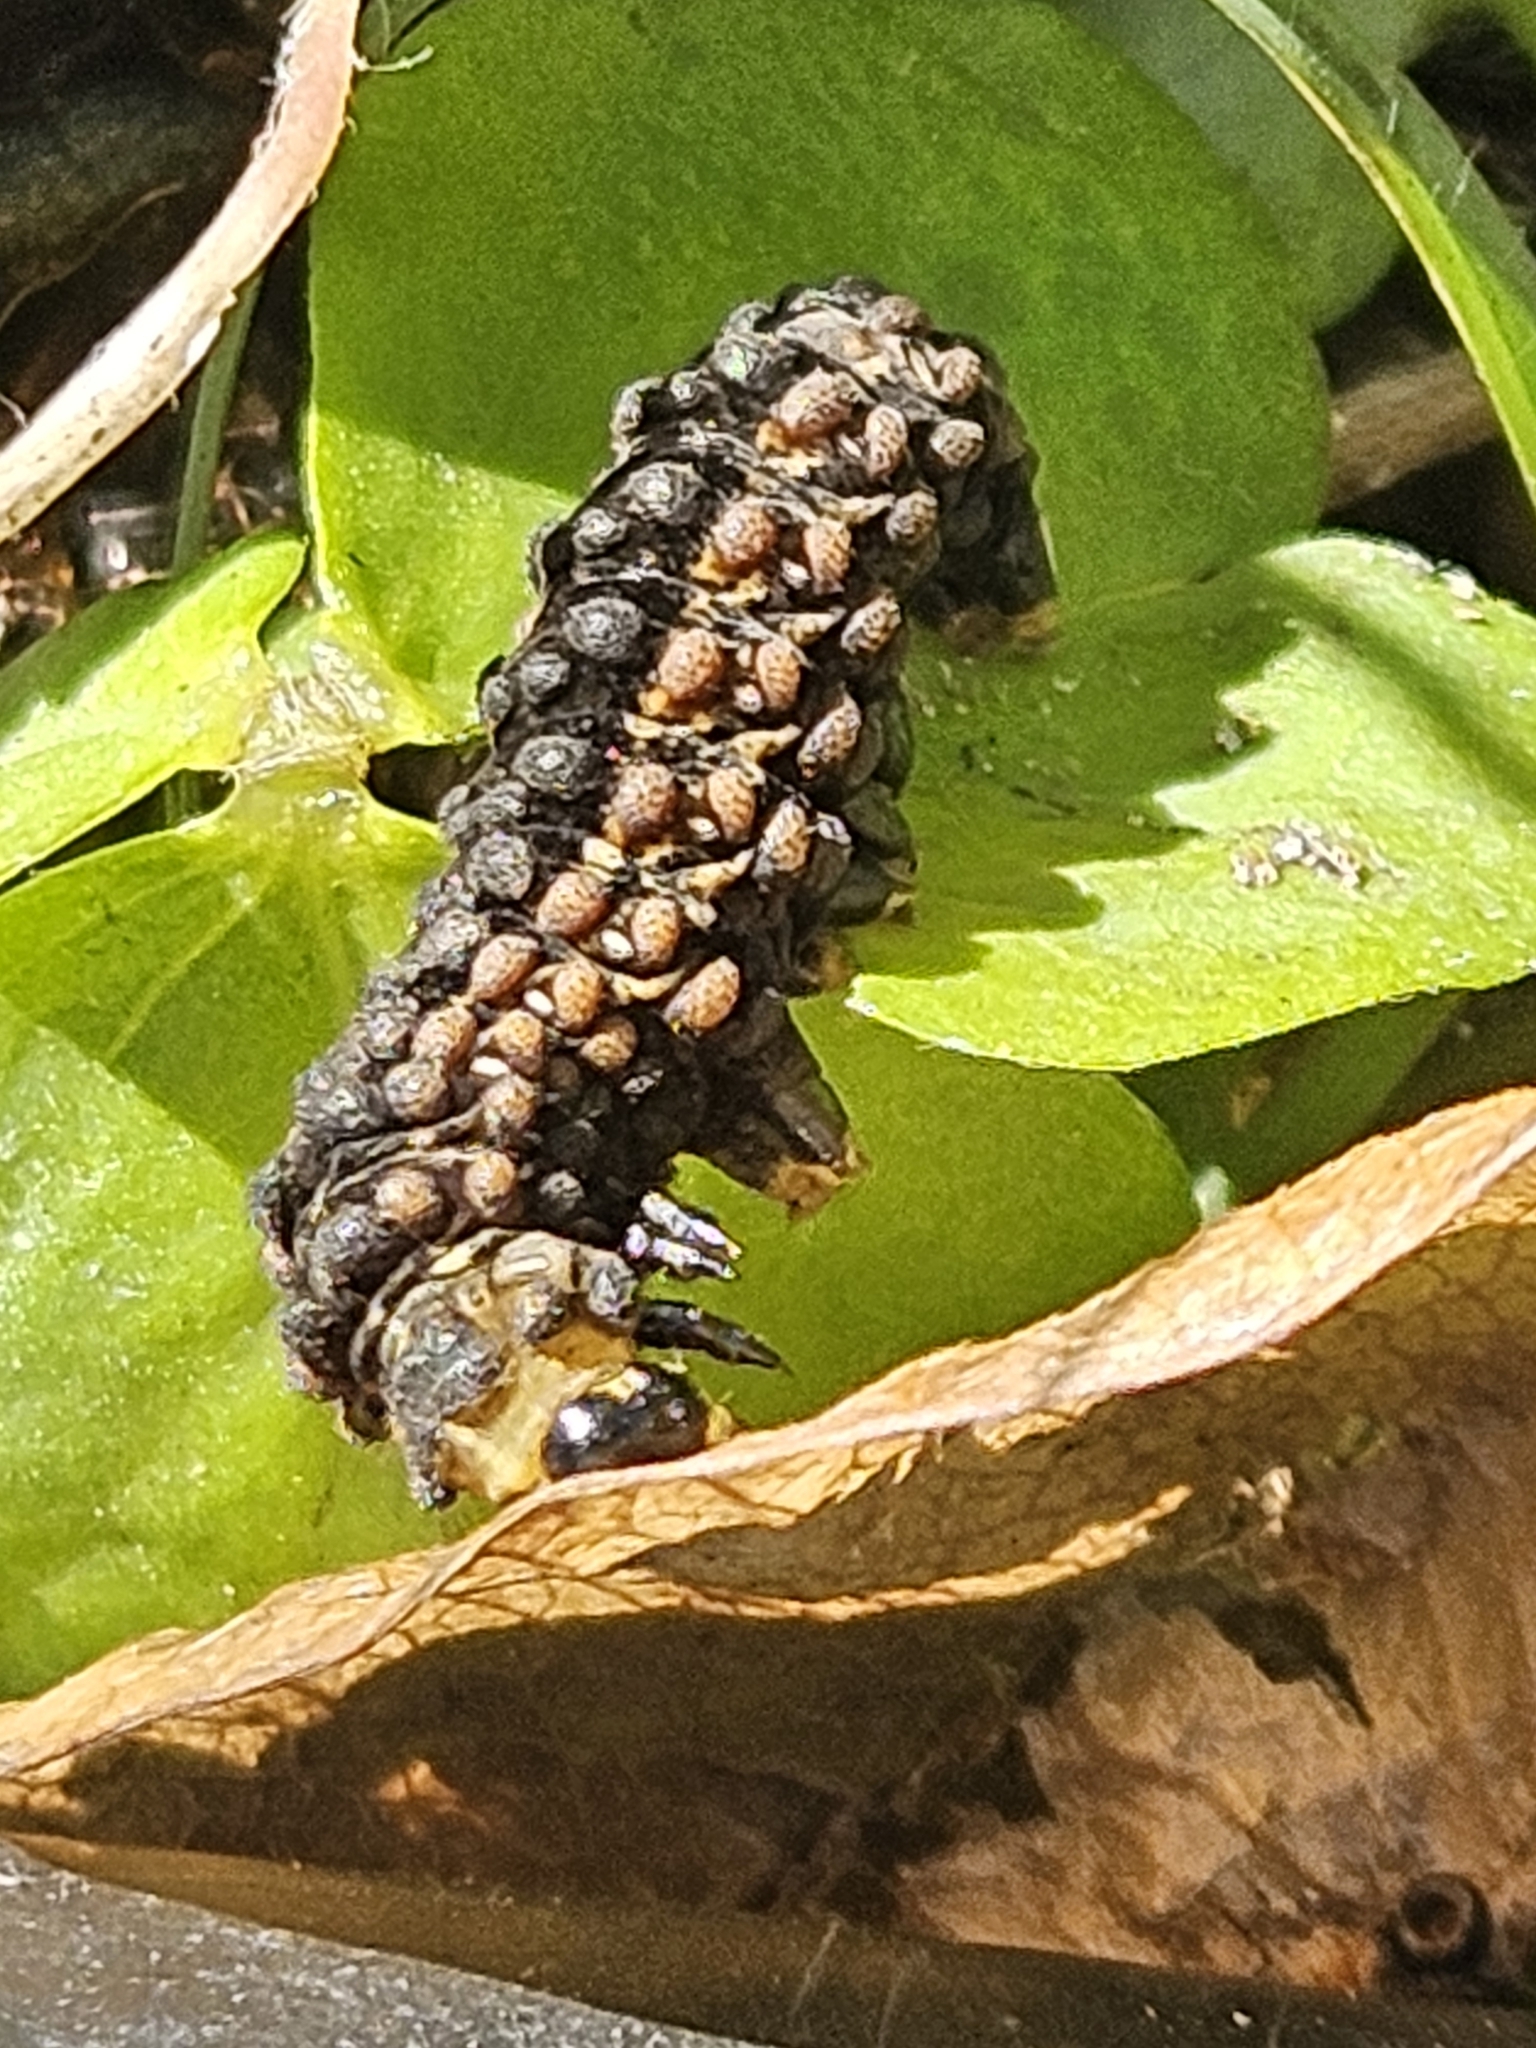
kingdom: Animalia
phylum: Arthropoda
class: Insecta
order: Lepidoptera
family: Erebidae
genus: Estigmene
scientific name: Estigmene acrea
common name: Salt marsh moth
